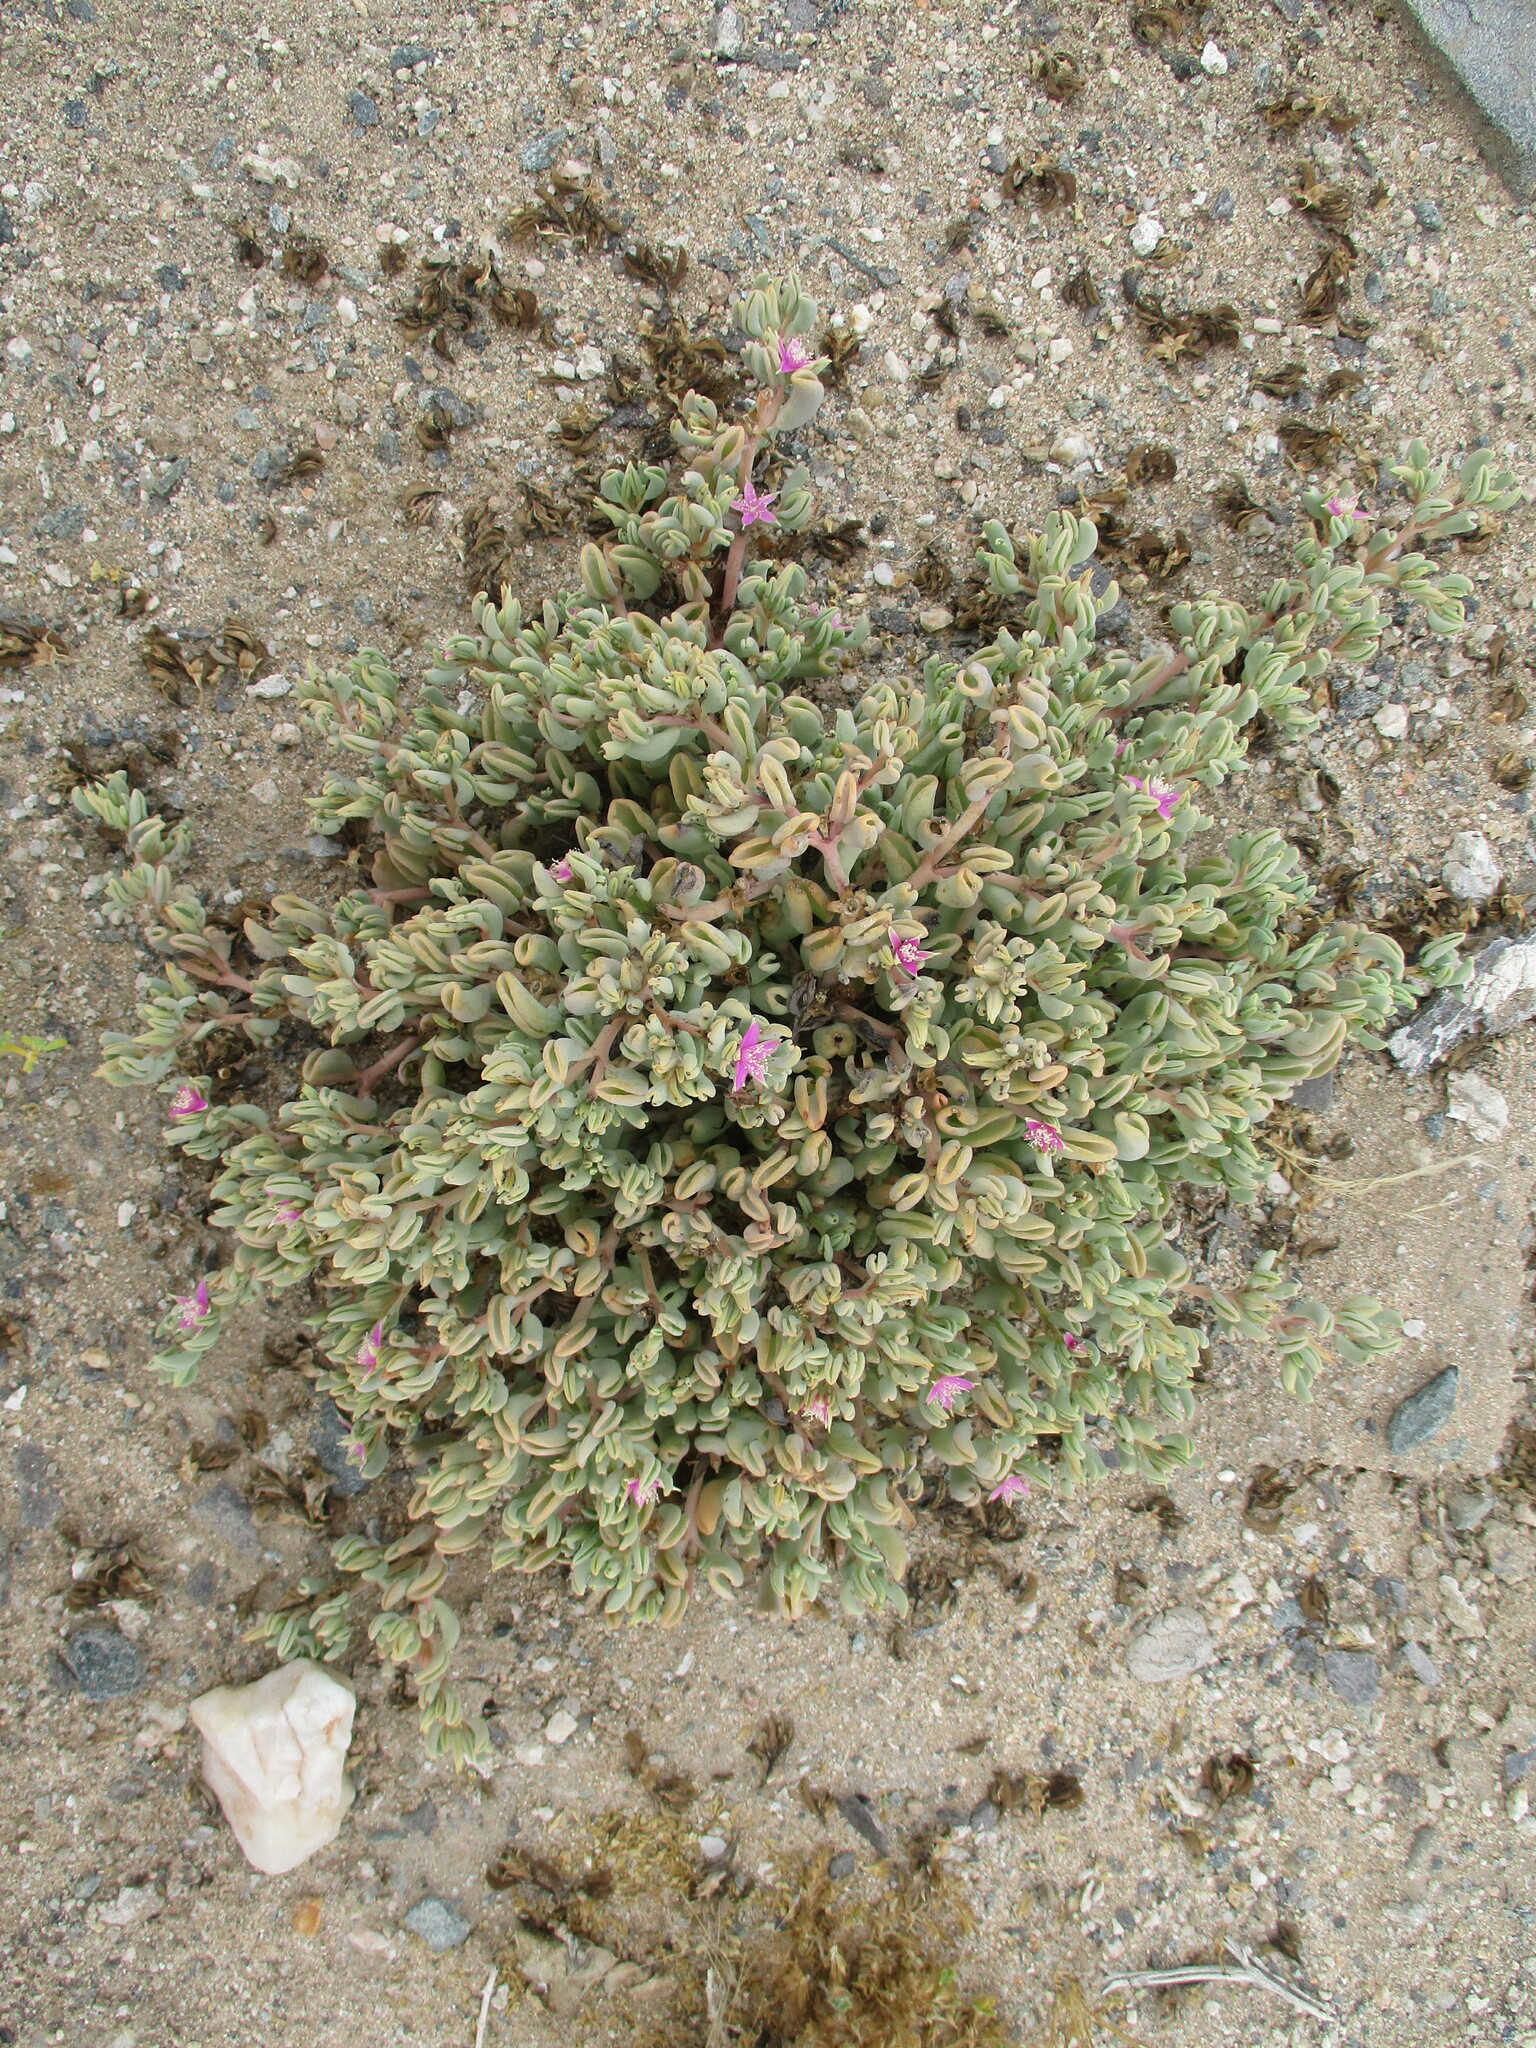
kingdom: Plantae
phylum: Tracheophyta
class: Magnoliopsida
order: Caryophyllales
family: Aizoaceae
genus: Sesuvium
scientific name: Sesuvium sesuvioides
